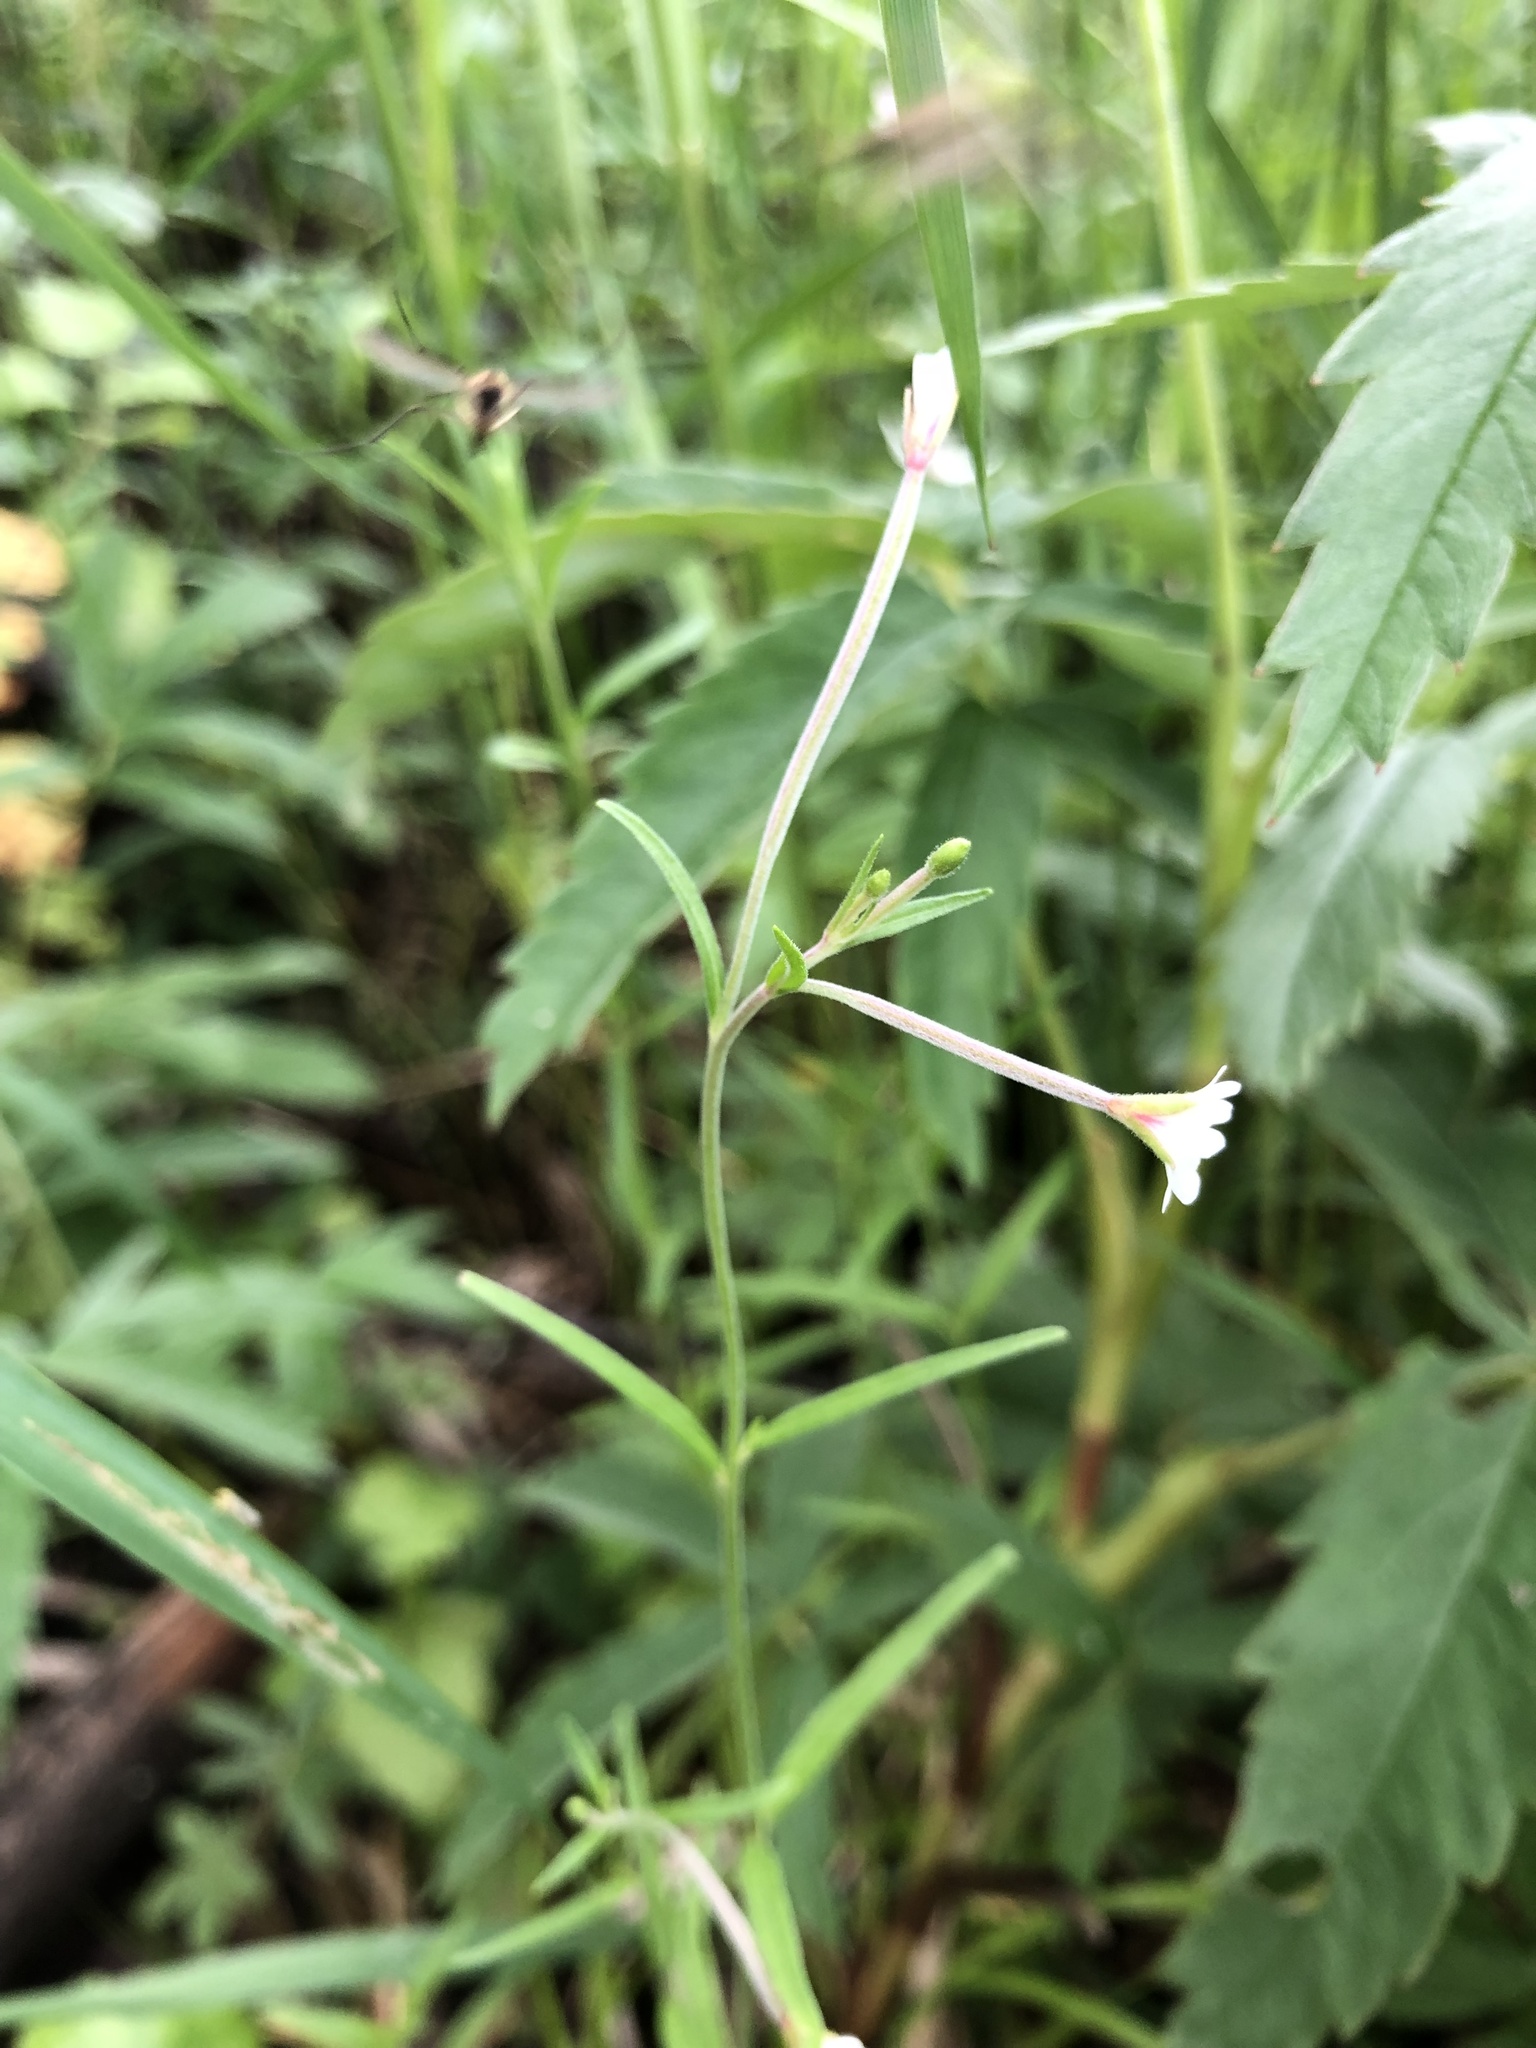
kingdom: Plantae
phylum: Tracheophyta
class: Magnoliopsida
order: Myrtales
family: Onagraceae
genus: Epilobium
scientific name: Epilobium palustre
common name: Marsh willowherb
